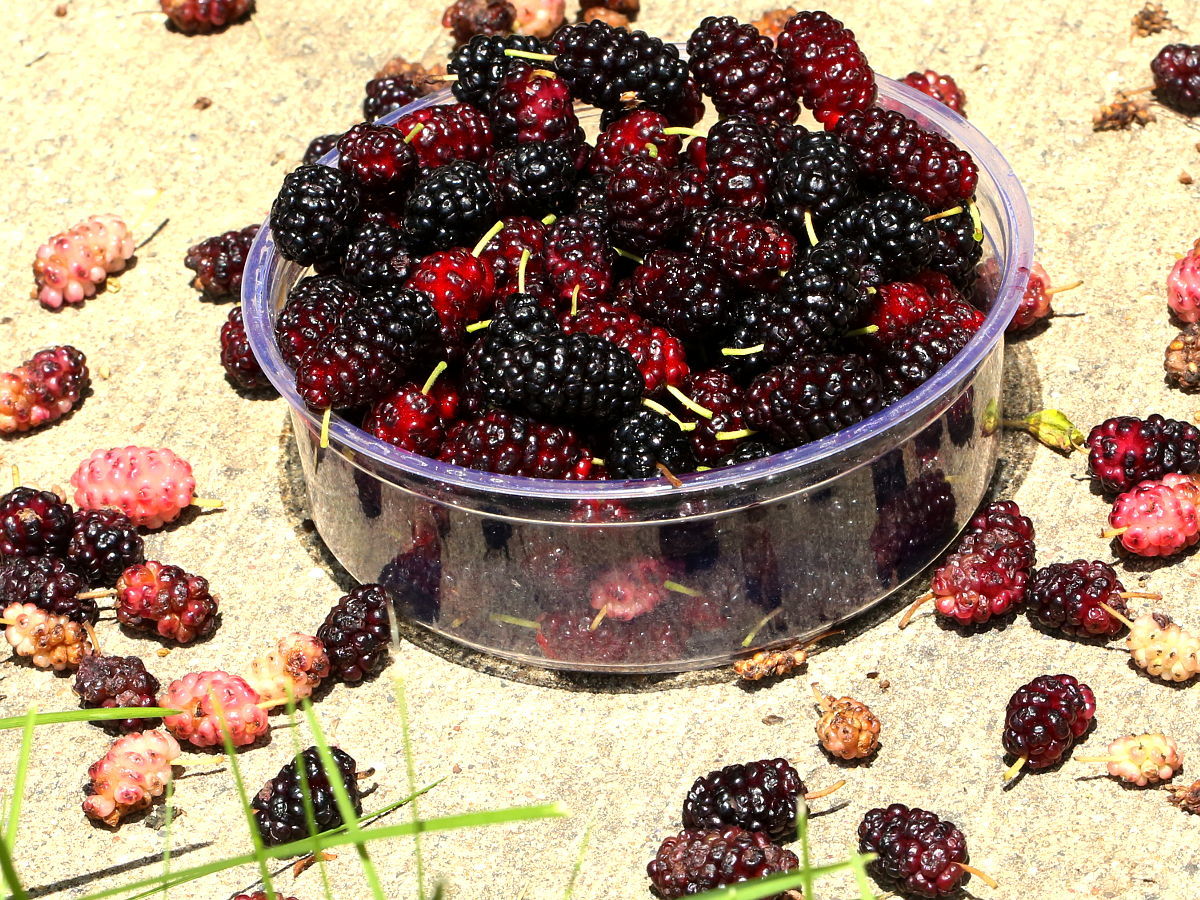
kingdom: Plantae
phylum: Tracheophyta
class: Magnoliopsida
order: Rosales
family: Moraceae
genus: Morus
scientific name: Morus alba
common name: White mulberry
